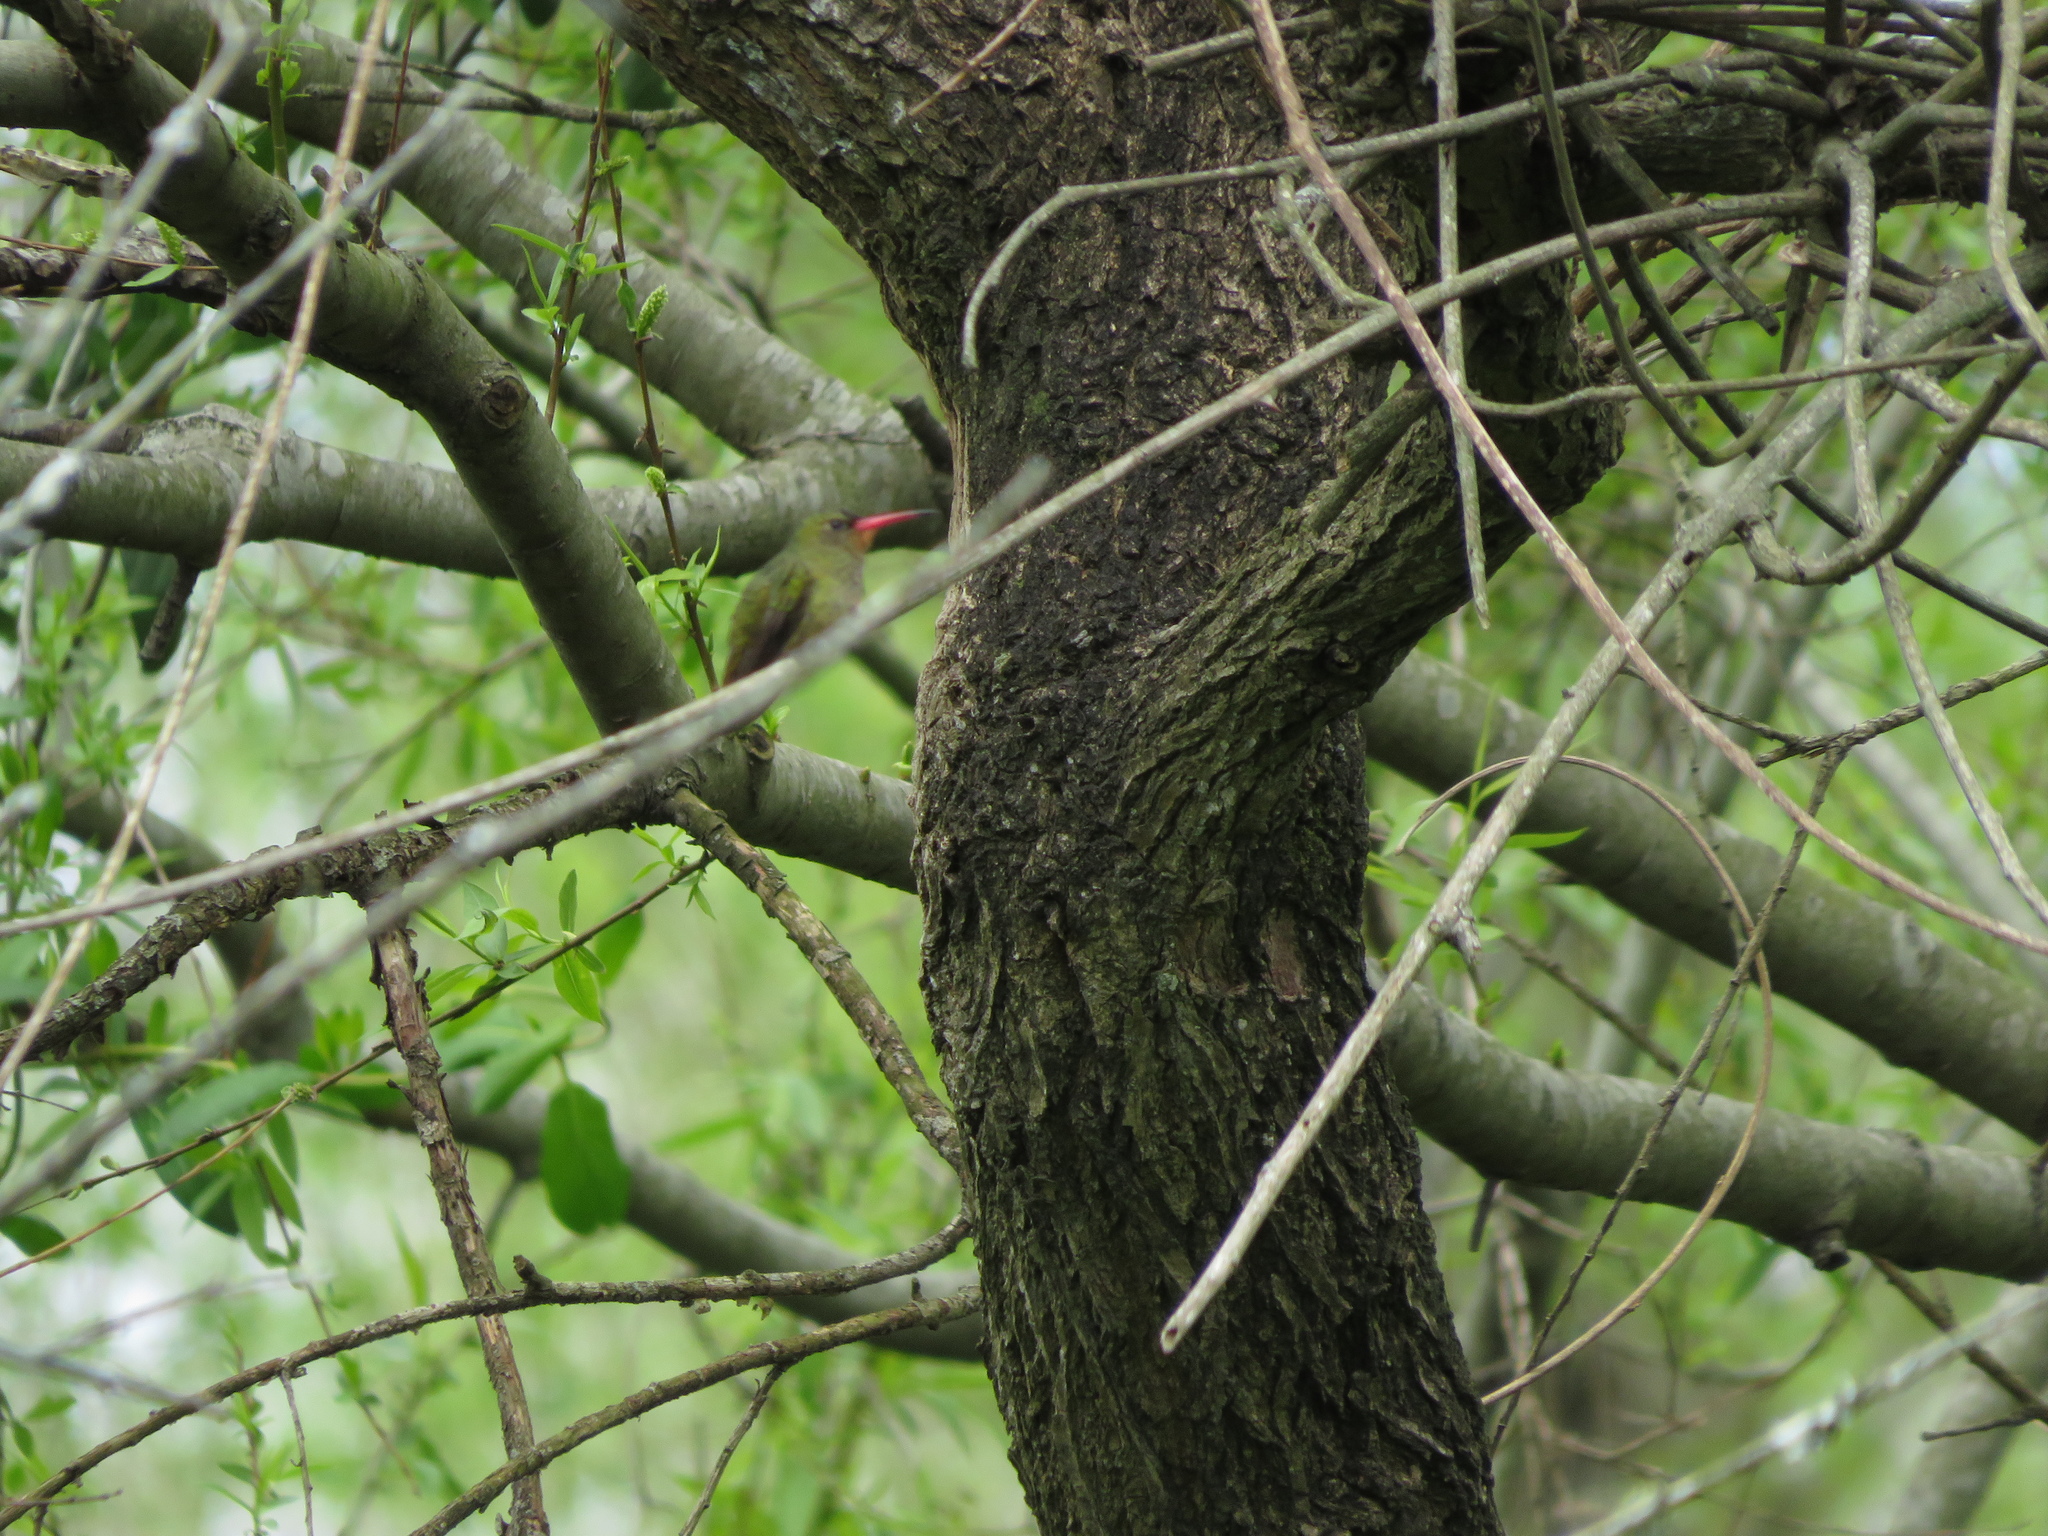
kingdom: Animalia
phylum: Chordata
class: Aves
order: Apodiformes
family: Trochilidae
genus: Hylocharis
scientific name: Hylocharis chrysura
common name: Gilded sapphire
